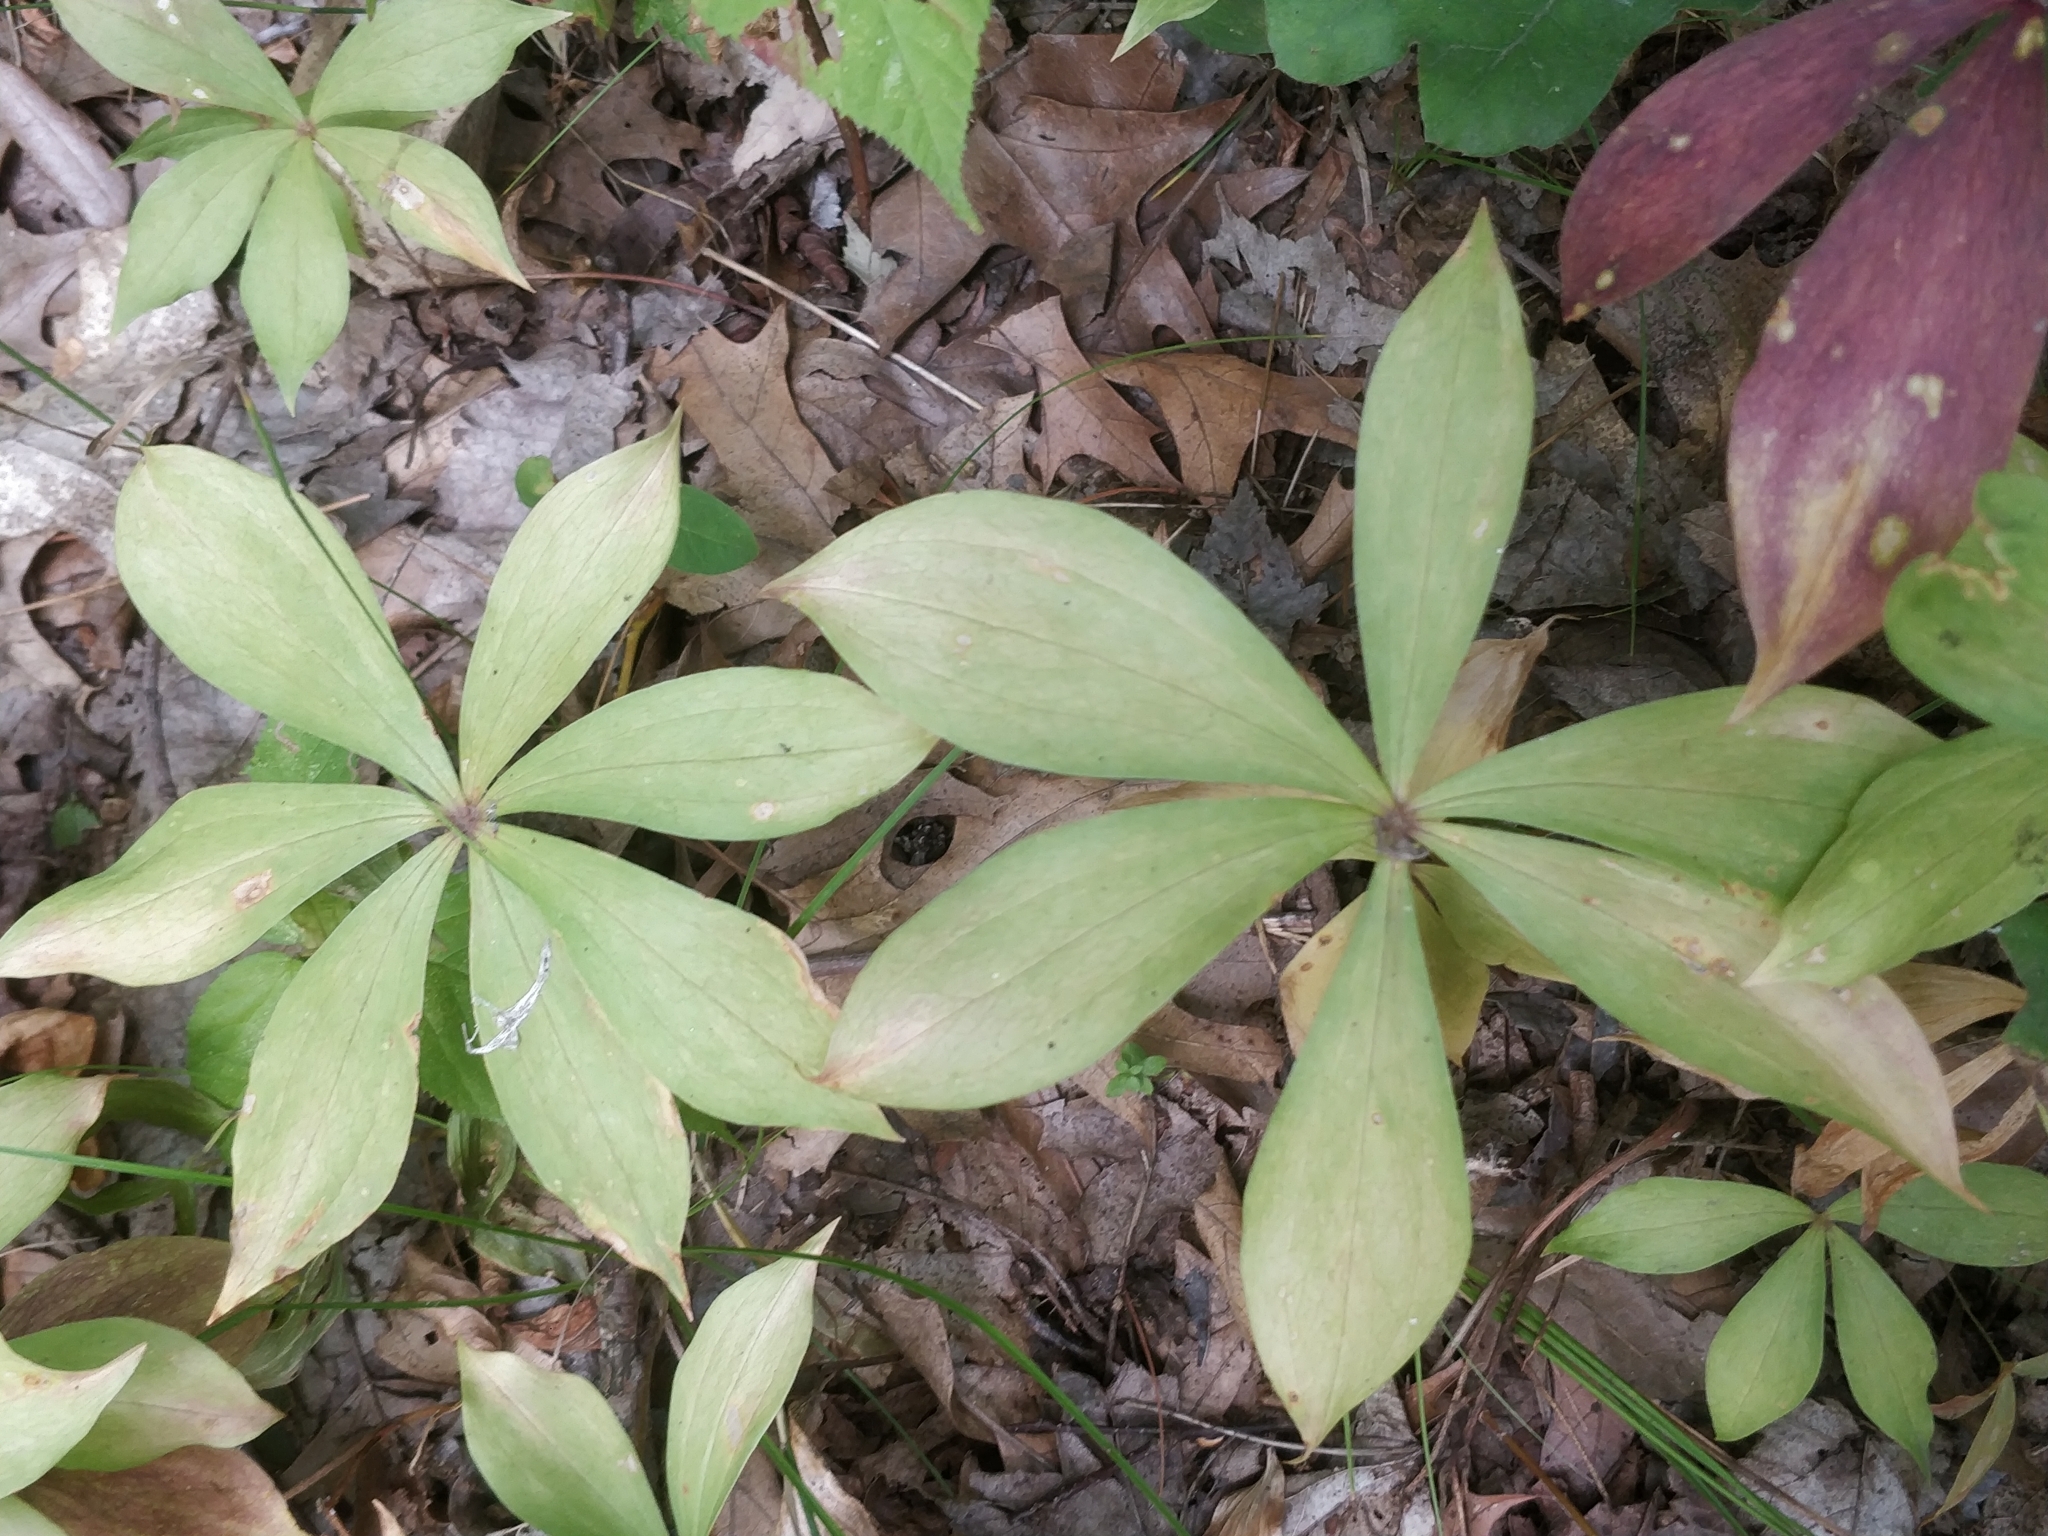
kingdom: Plantae
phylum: Tracheophyta
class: Liliopsida
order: Liliales
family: Liliaceae
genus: Medeola
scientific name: Medeola virginiana
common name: Indian cucumber-root
